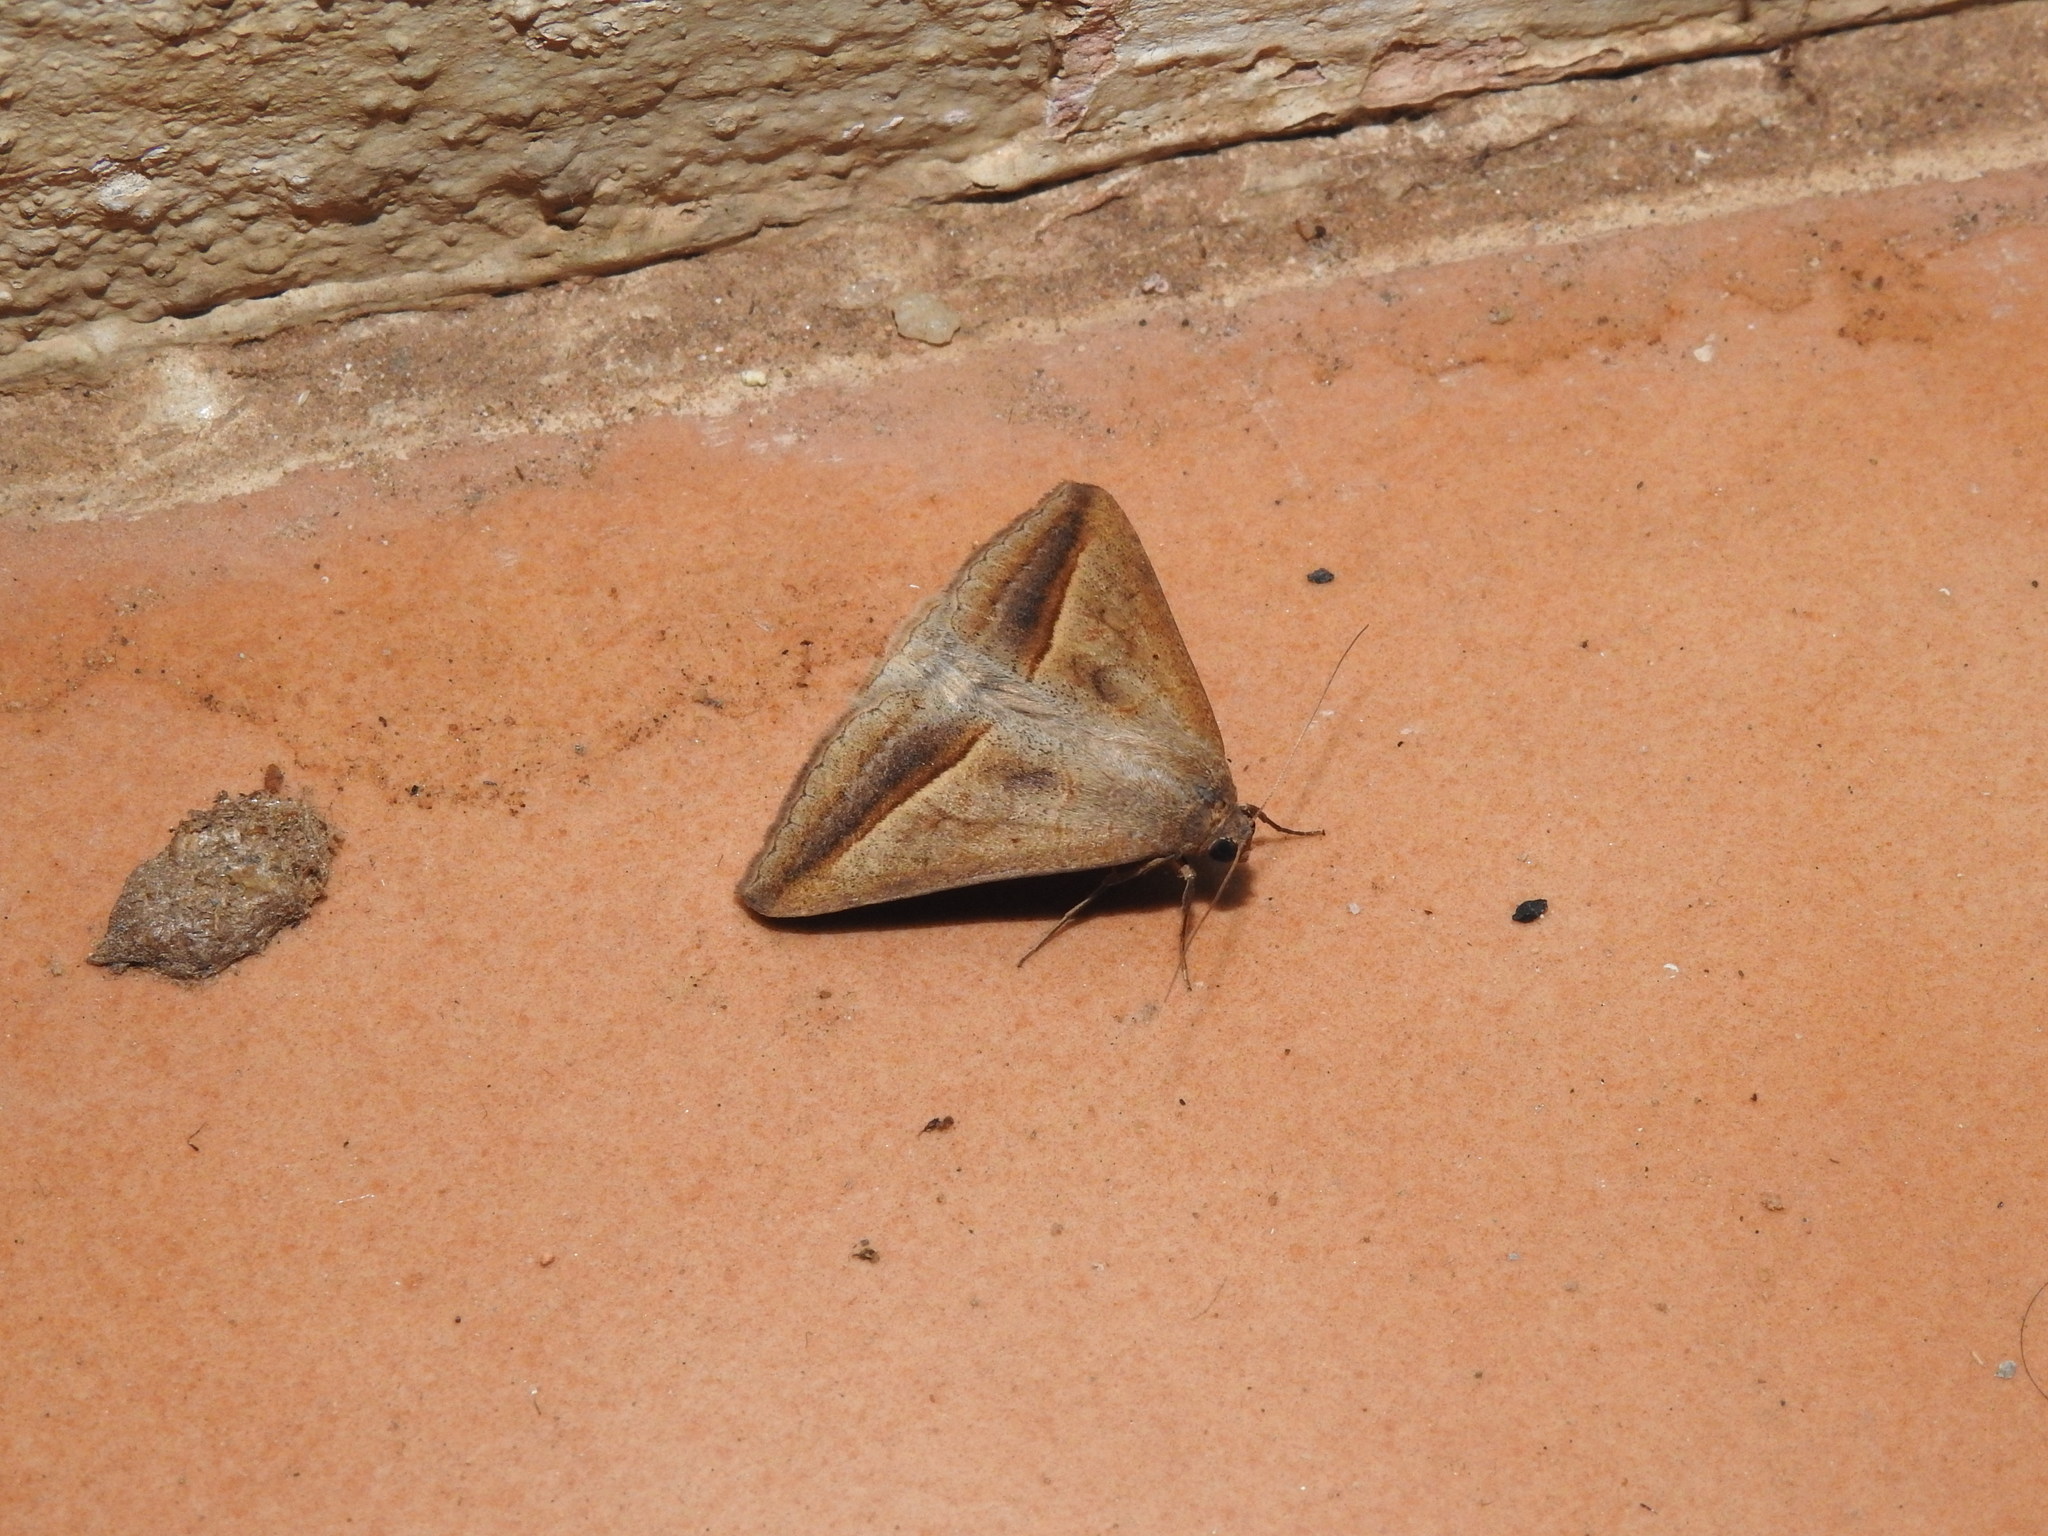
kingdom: Animalia
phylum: Arthropoda
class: Insecta
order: Lepidoptera
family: Erebidae
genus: Mocis
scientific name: Mocis frugalis
